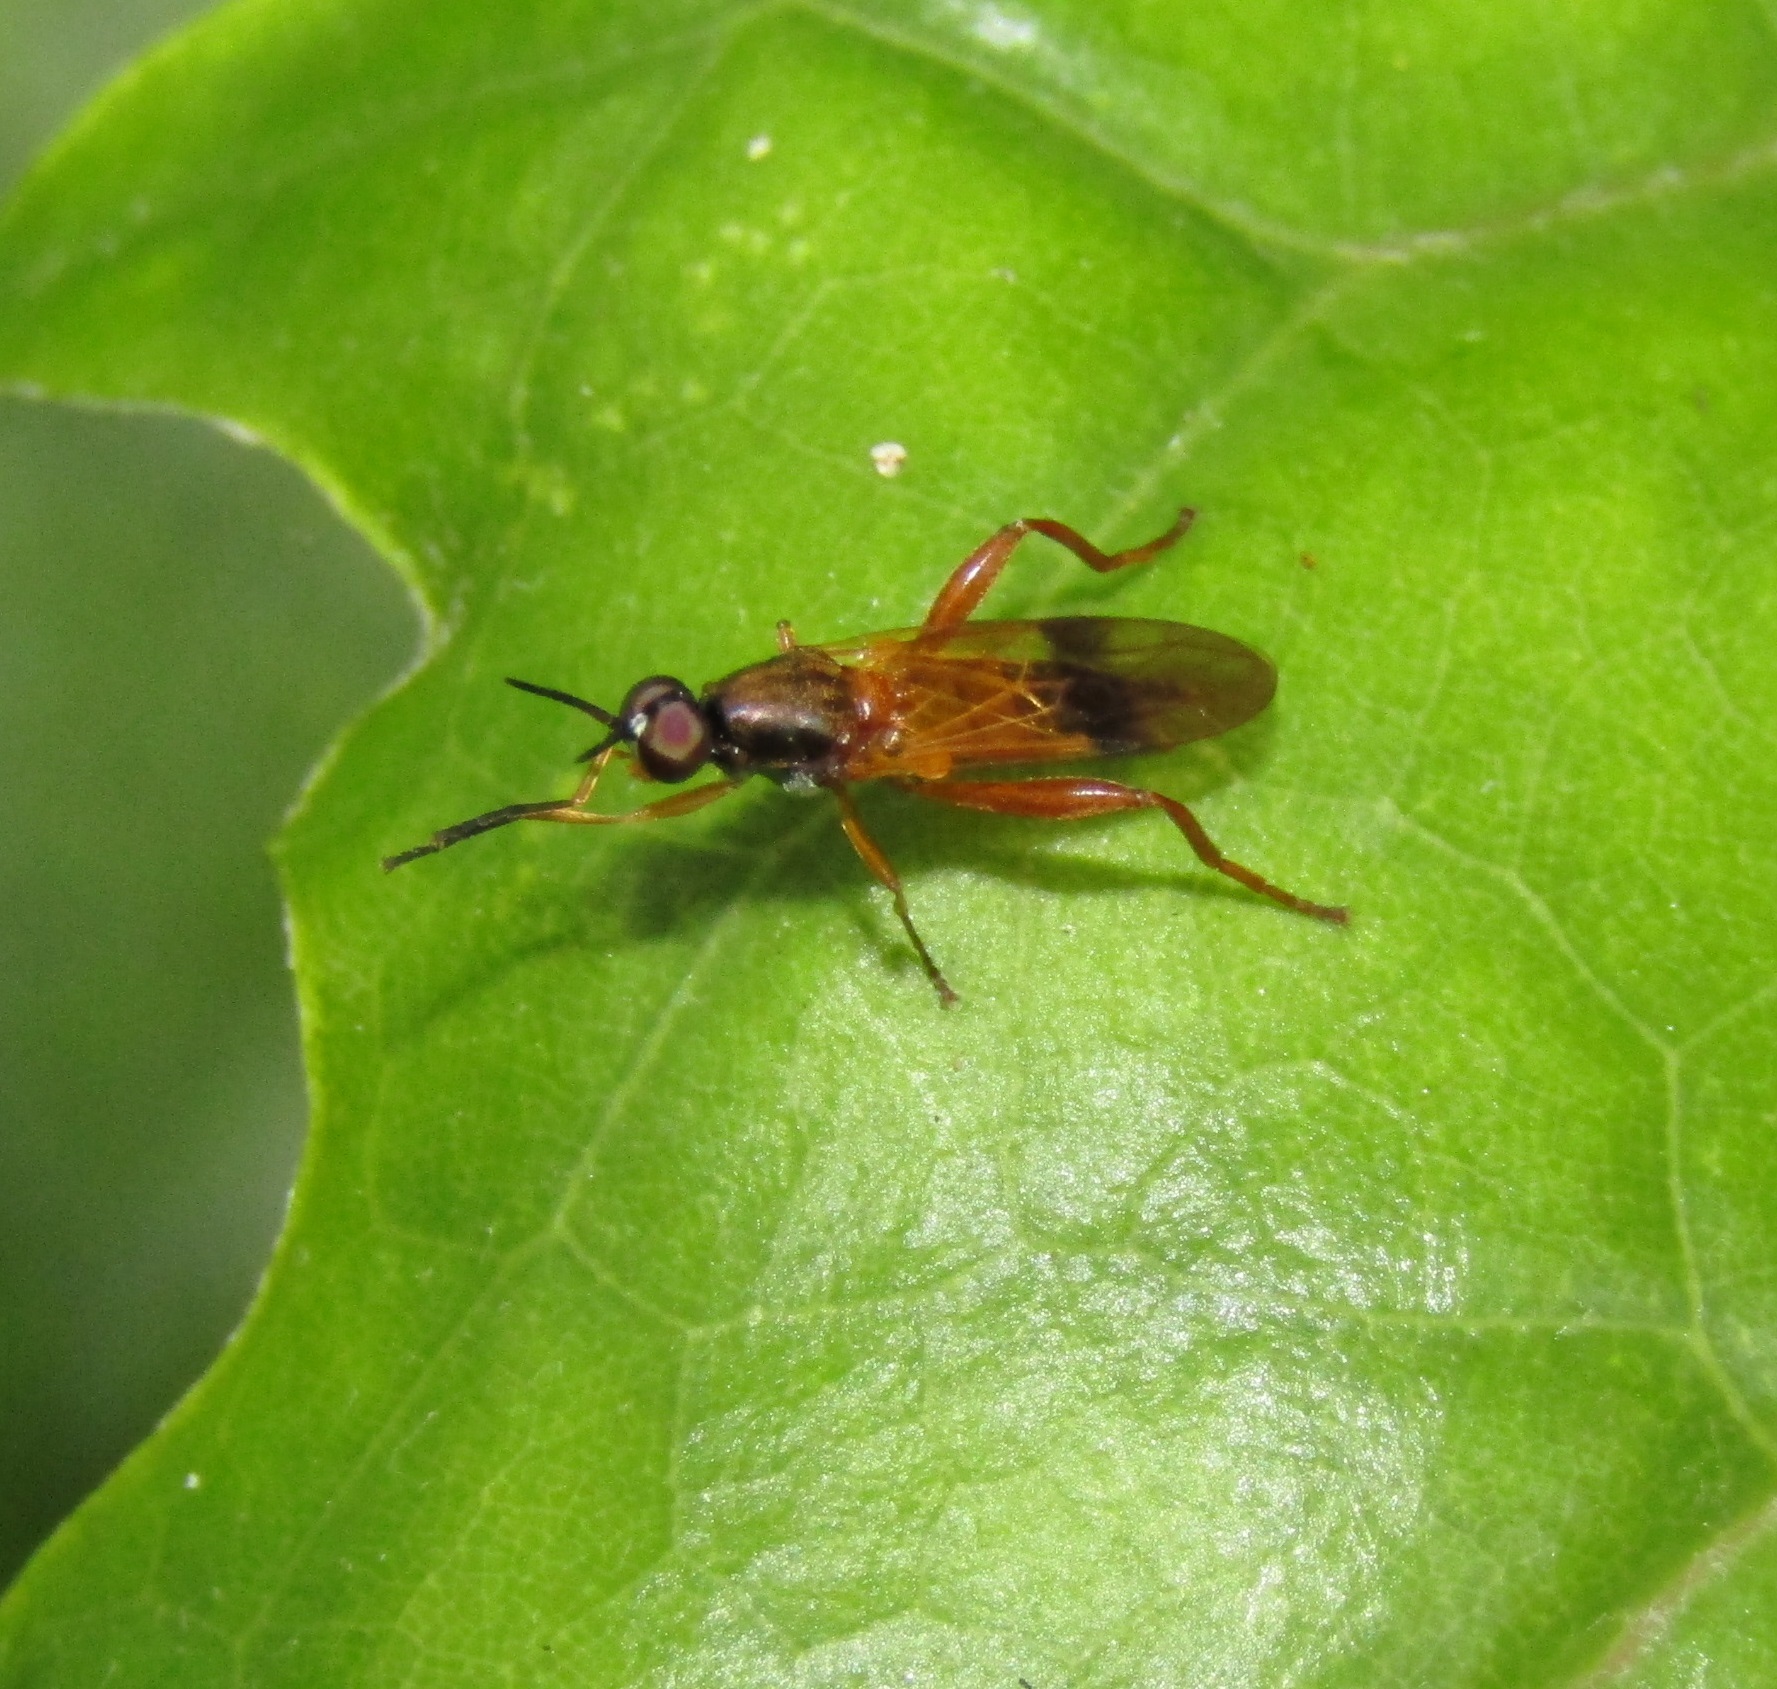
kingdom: Animalia
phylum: Arthropoda
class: Insecta
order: Diptera
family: Stratiomyidae
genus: Benhamyia
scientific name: Benhamyia apicalis
